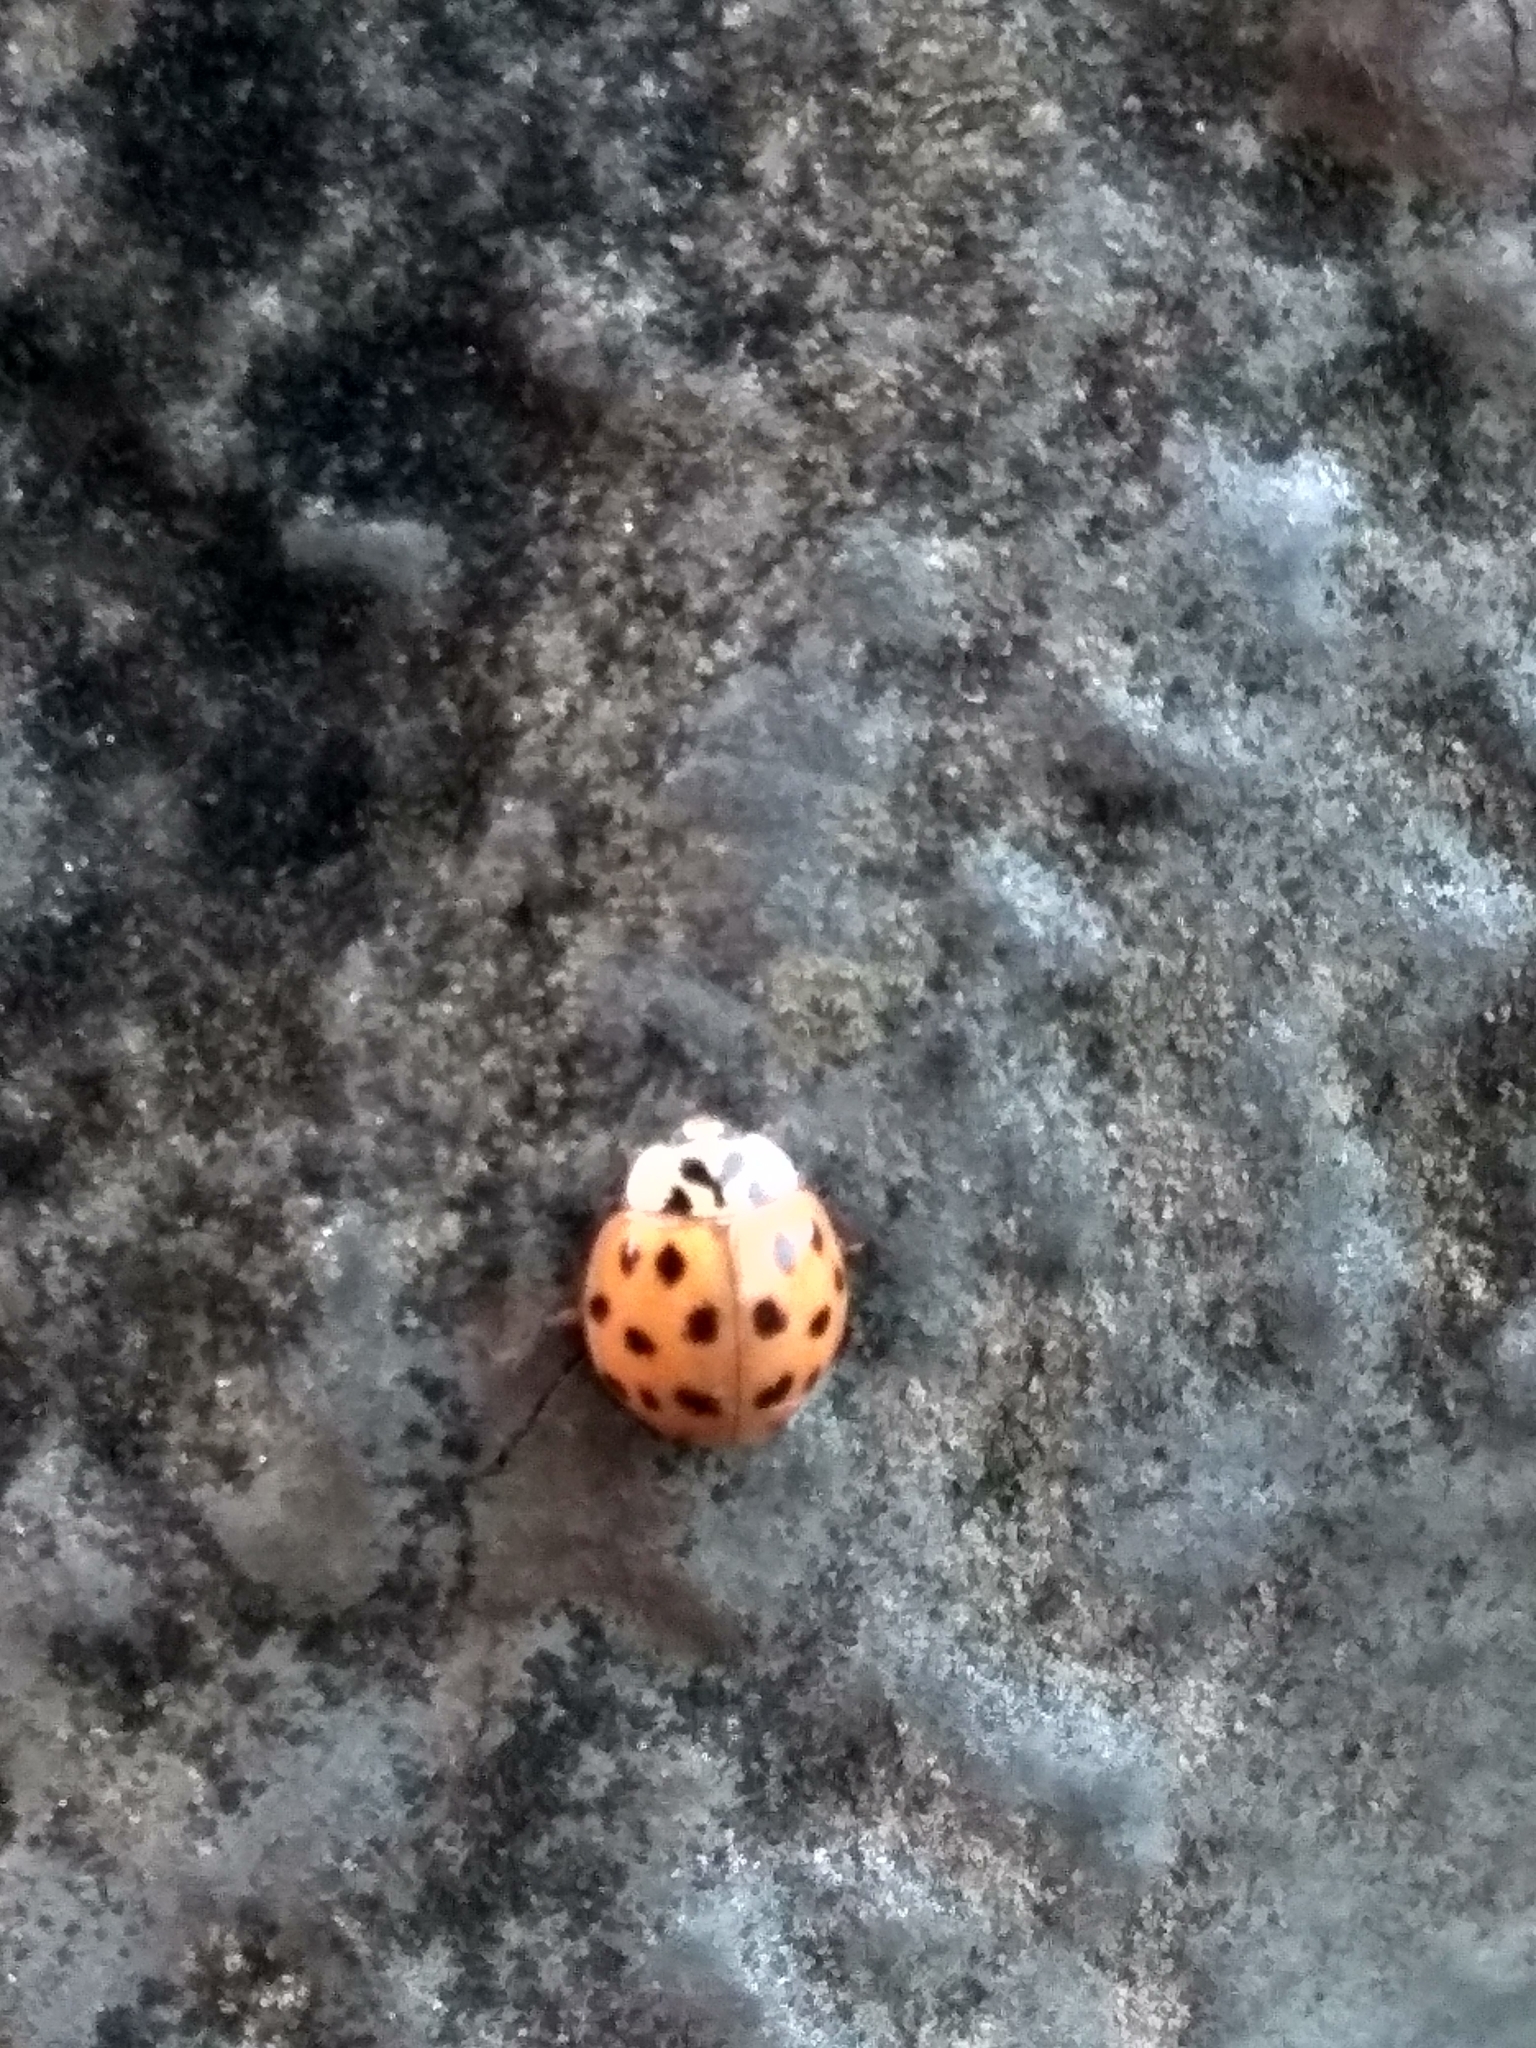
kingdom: Animalia
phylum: Arthropoda
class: Insecta
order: Coleoptera
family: Coccinellidae
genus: Harmonia
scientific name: Harmonia axyridis
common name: Harlequin ladybird
